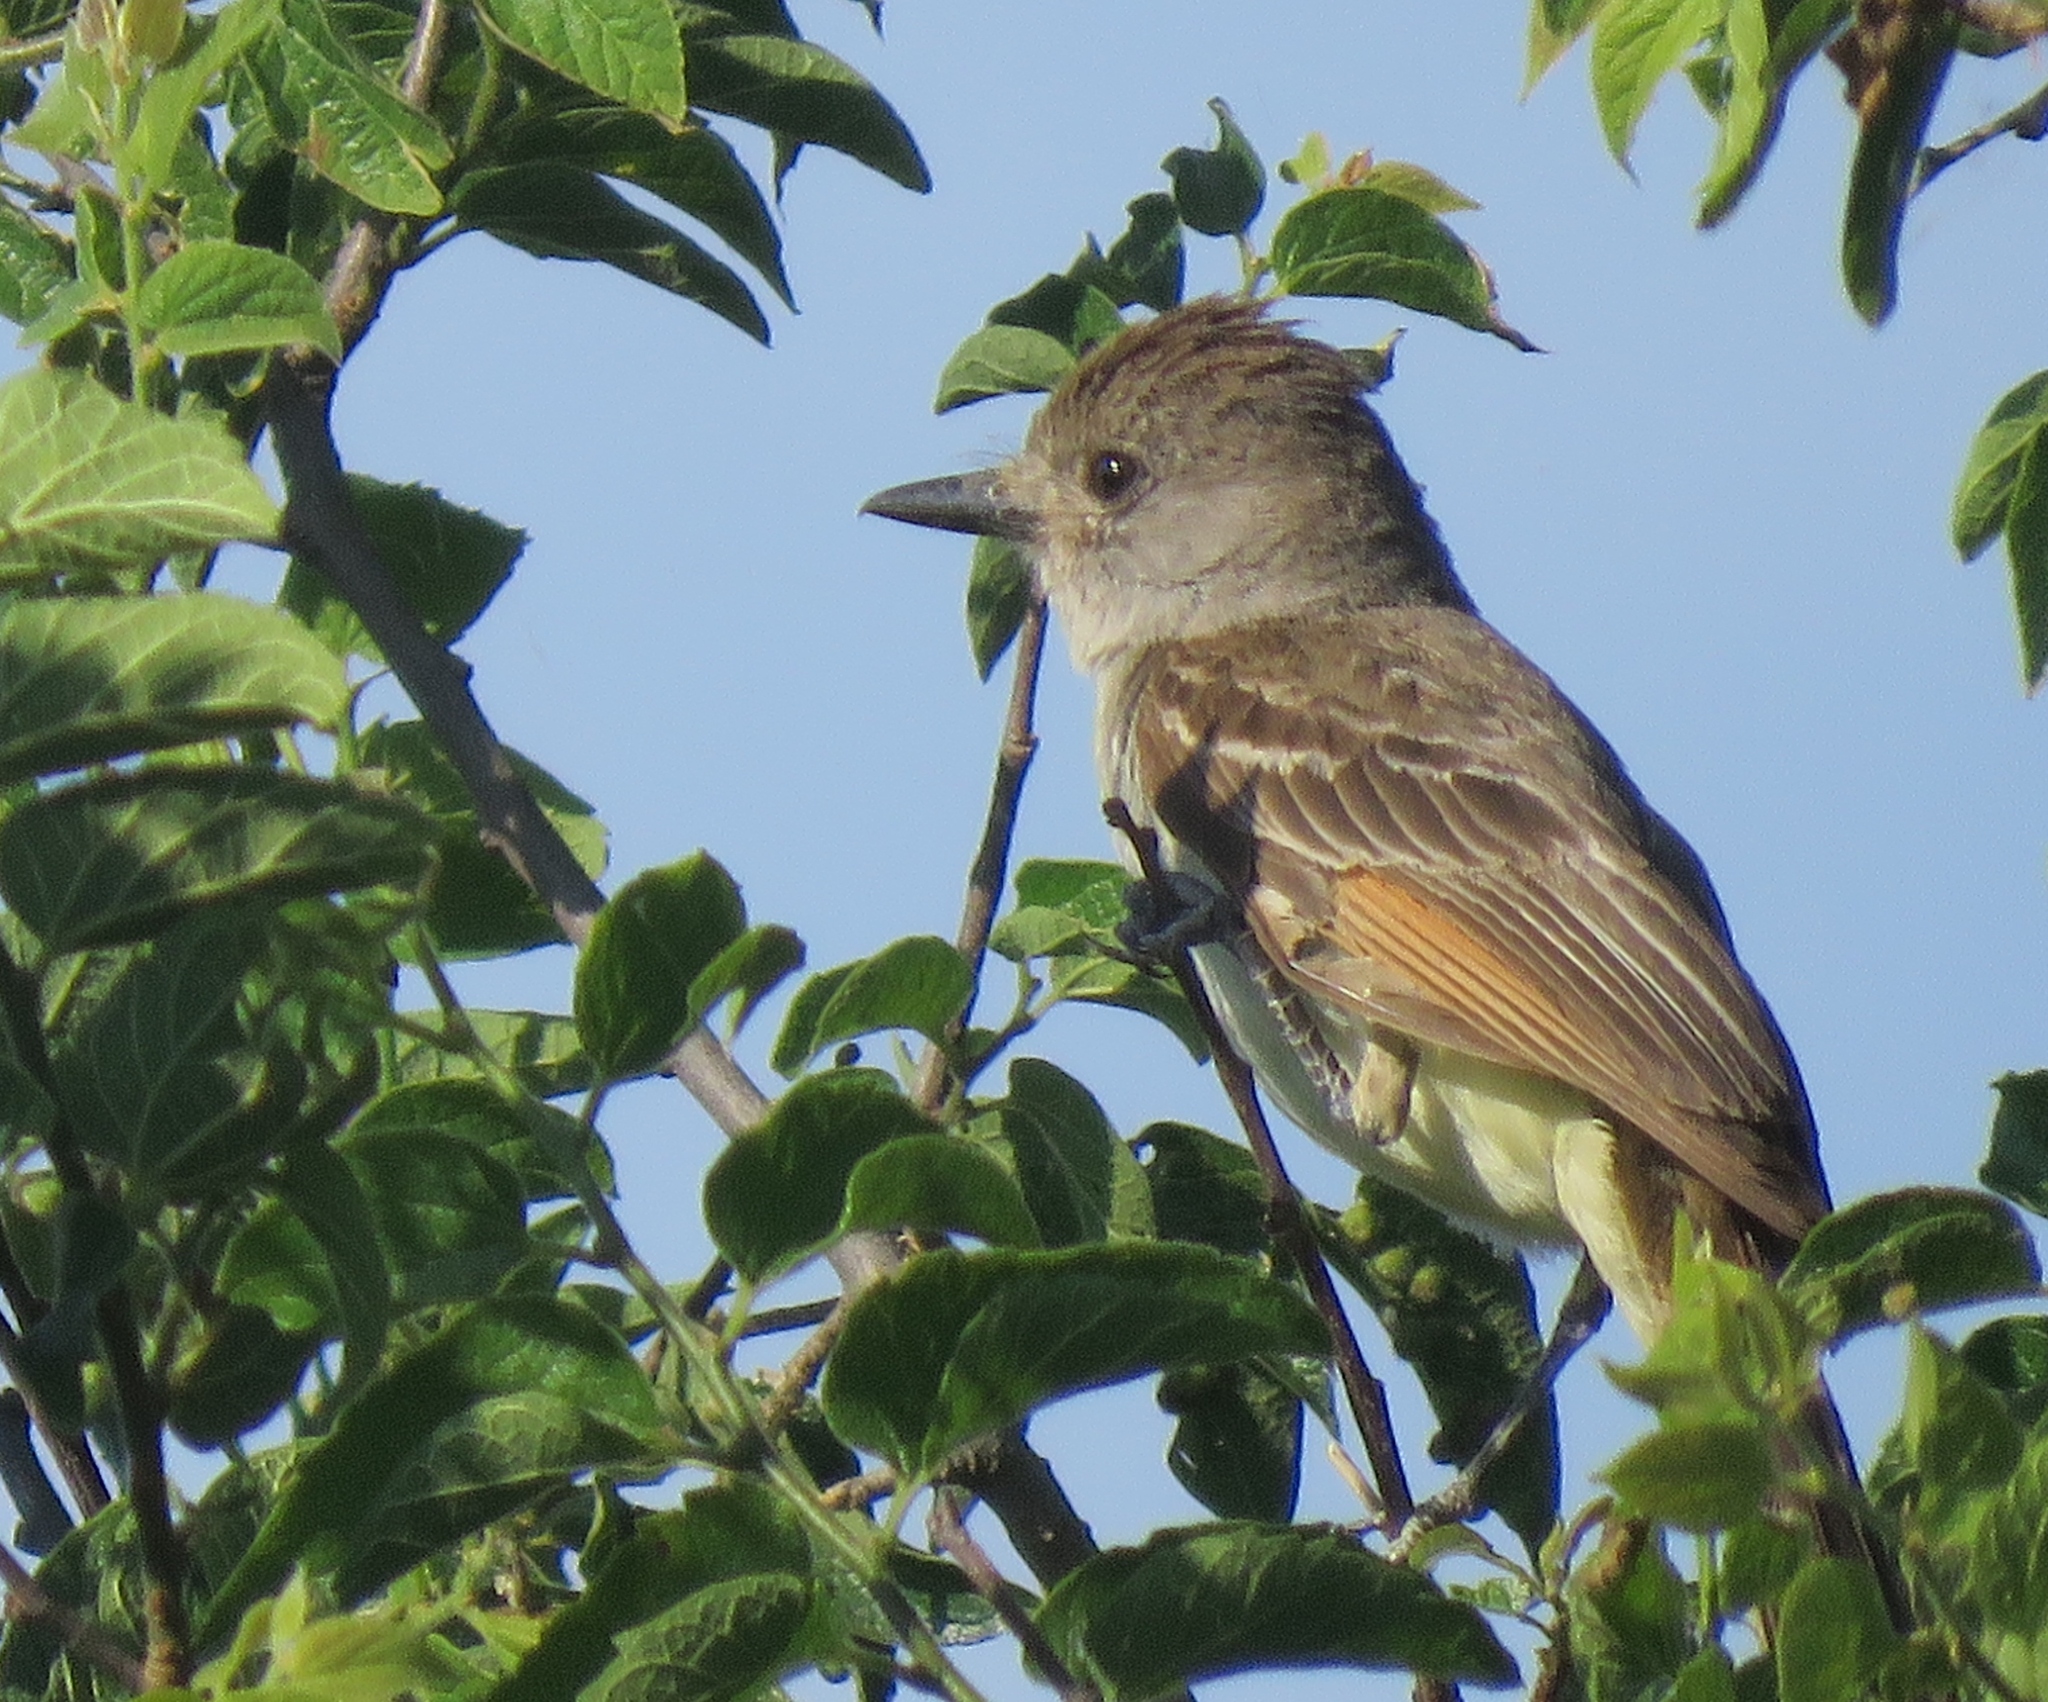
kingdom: Animalia
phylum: Chordata
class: Aves
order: Passeriformes
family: Tyrannidae
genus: Myiarchus
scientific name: Myiarchus cinerascens
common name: Ash-throated flycatcher
